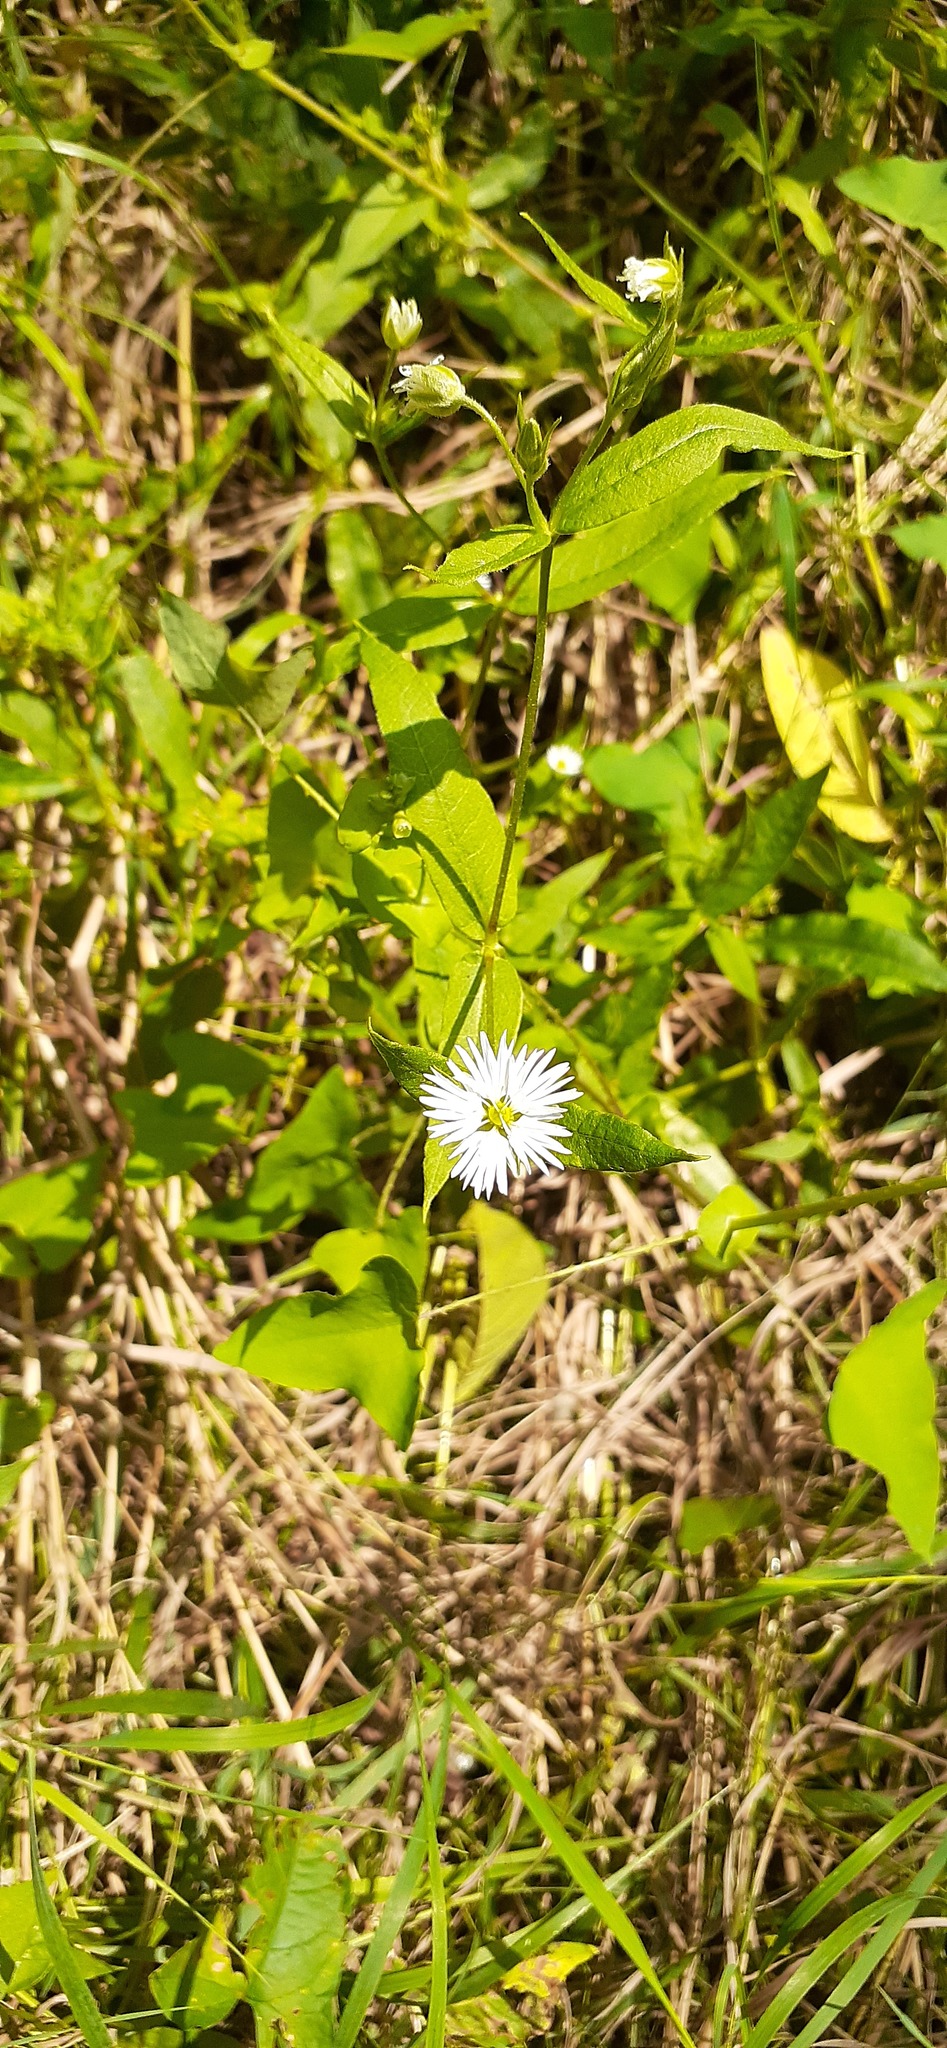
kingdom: Plantae
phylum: Tracheophyta
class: Magnoliopsida
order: Caryophyllales
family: Caryophyllaceae
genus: Stellaria
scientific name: Stellaria radians
